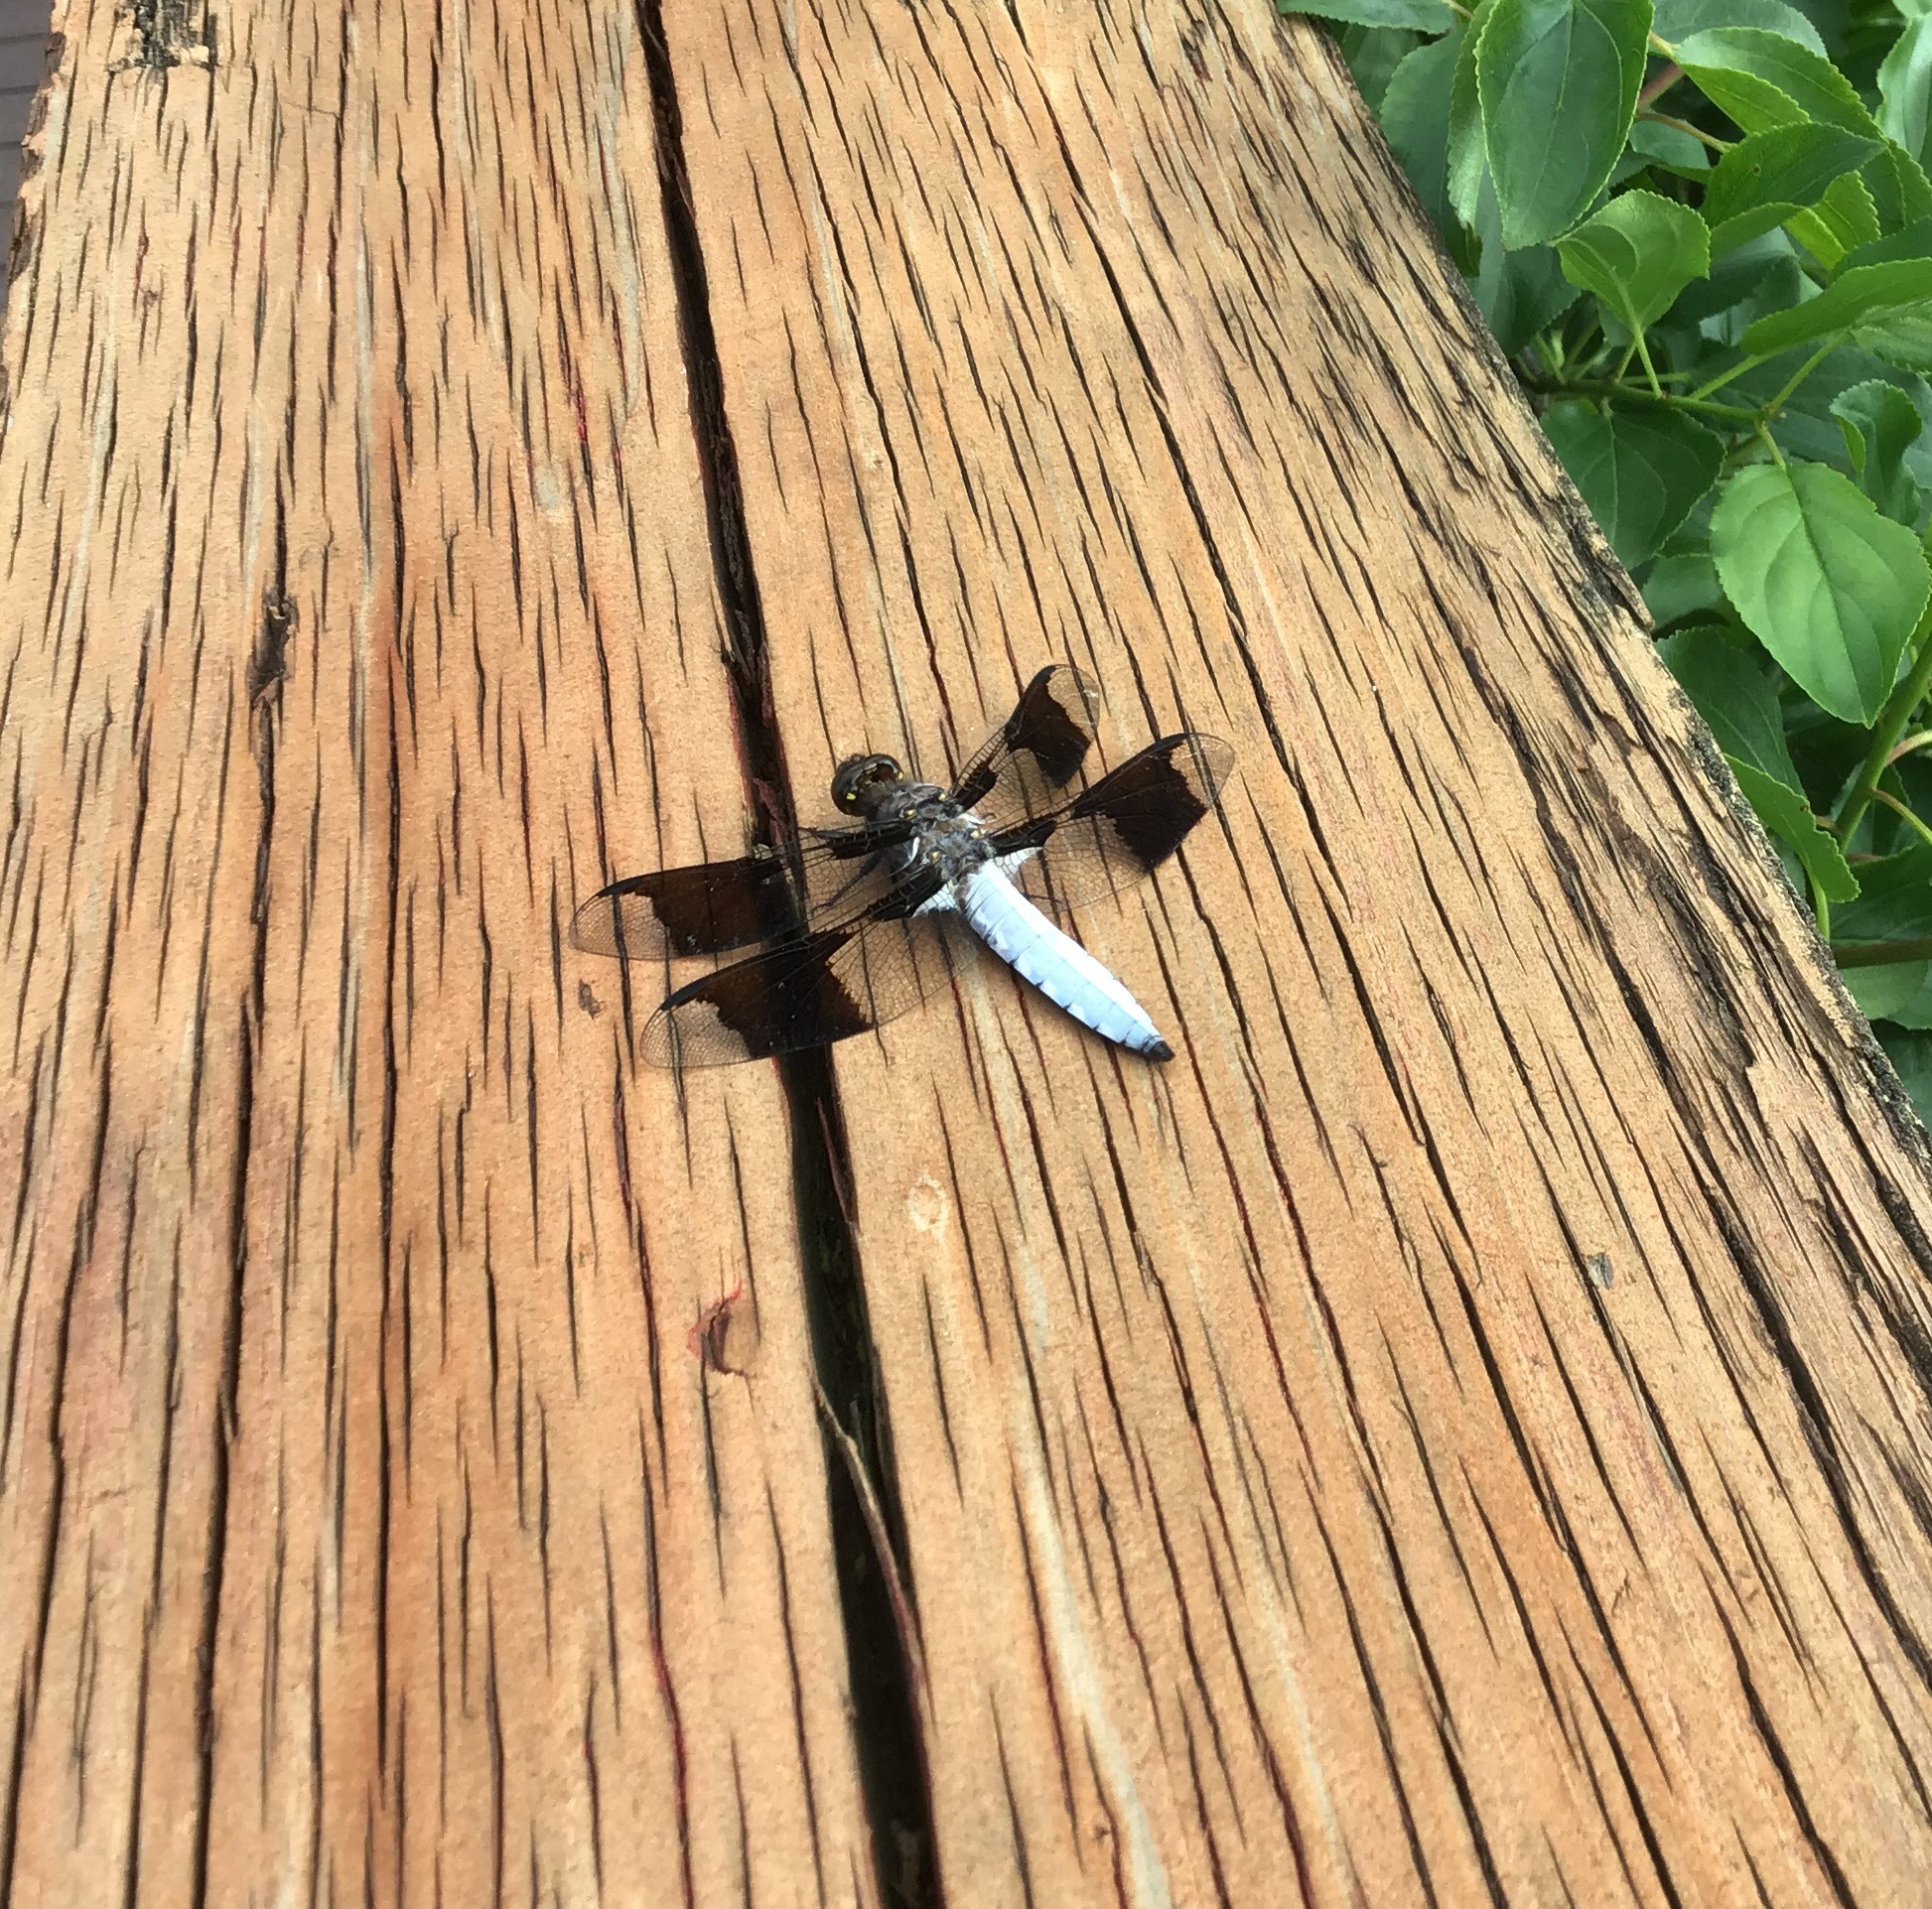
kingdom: Animalia
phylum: Arthropoda
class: Insecta
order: Odonata
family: Libellulidae
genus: Plathemis
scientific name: Plathemis lydia
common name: Common whitetail
